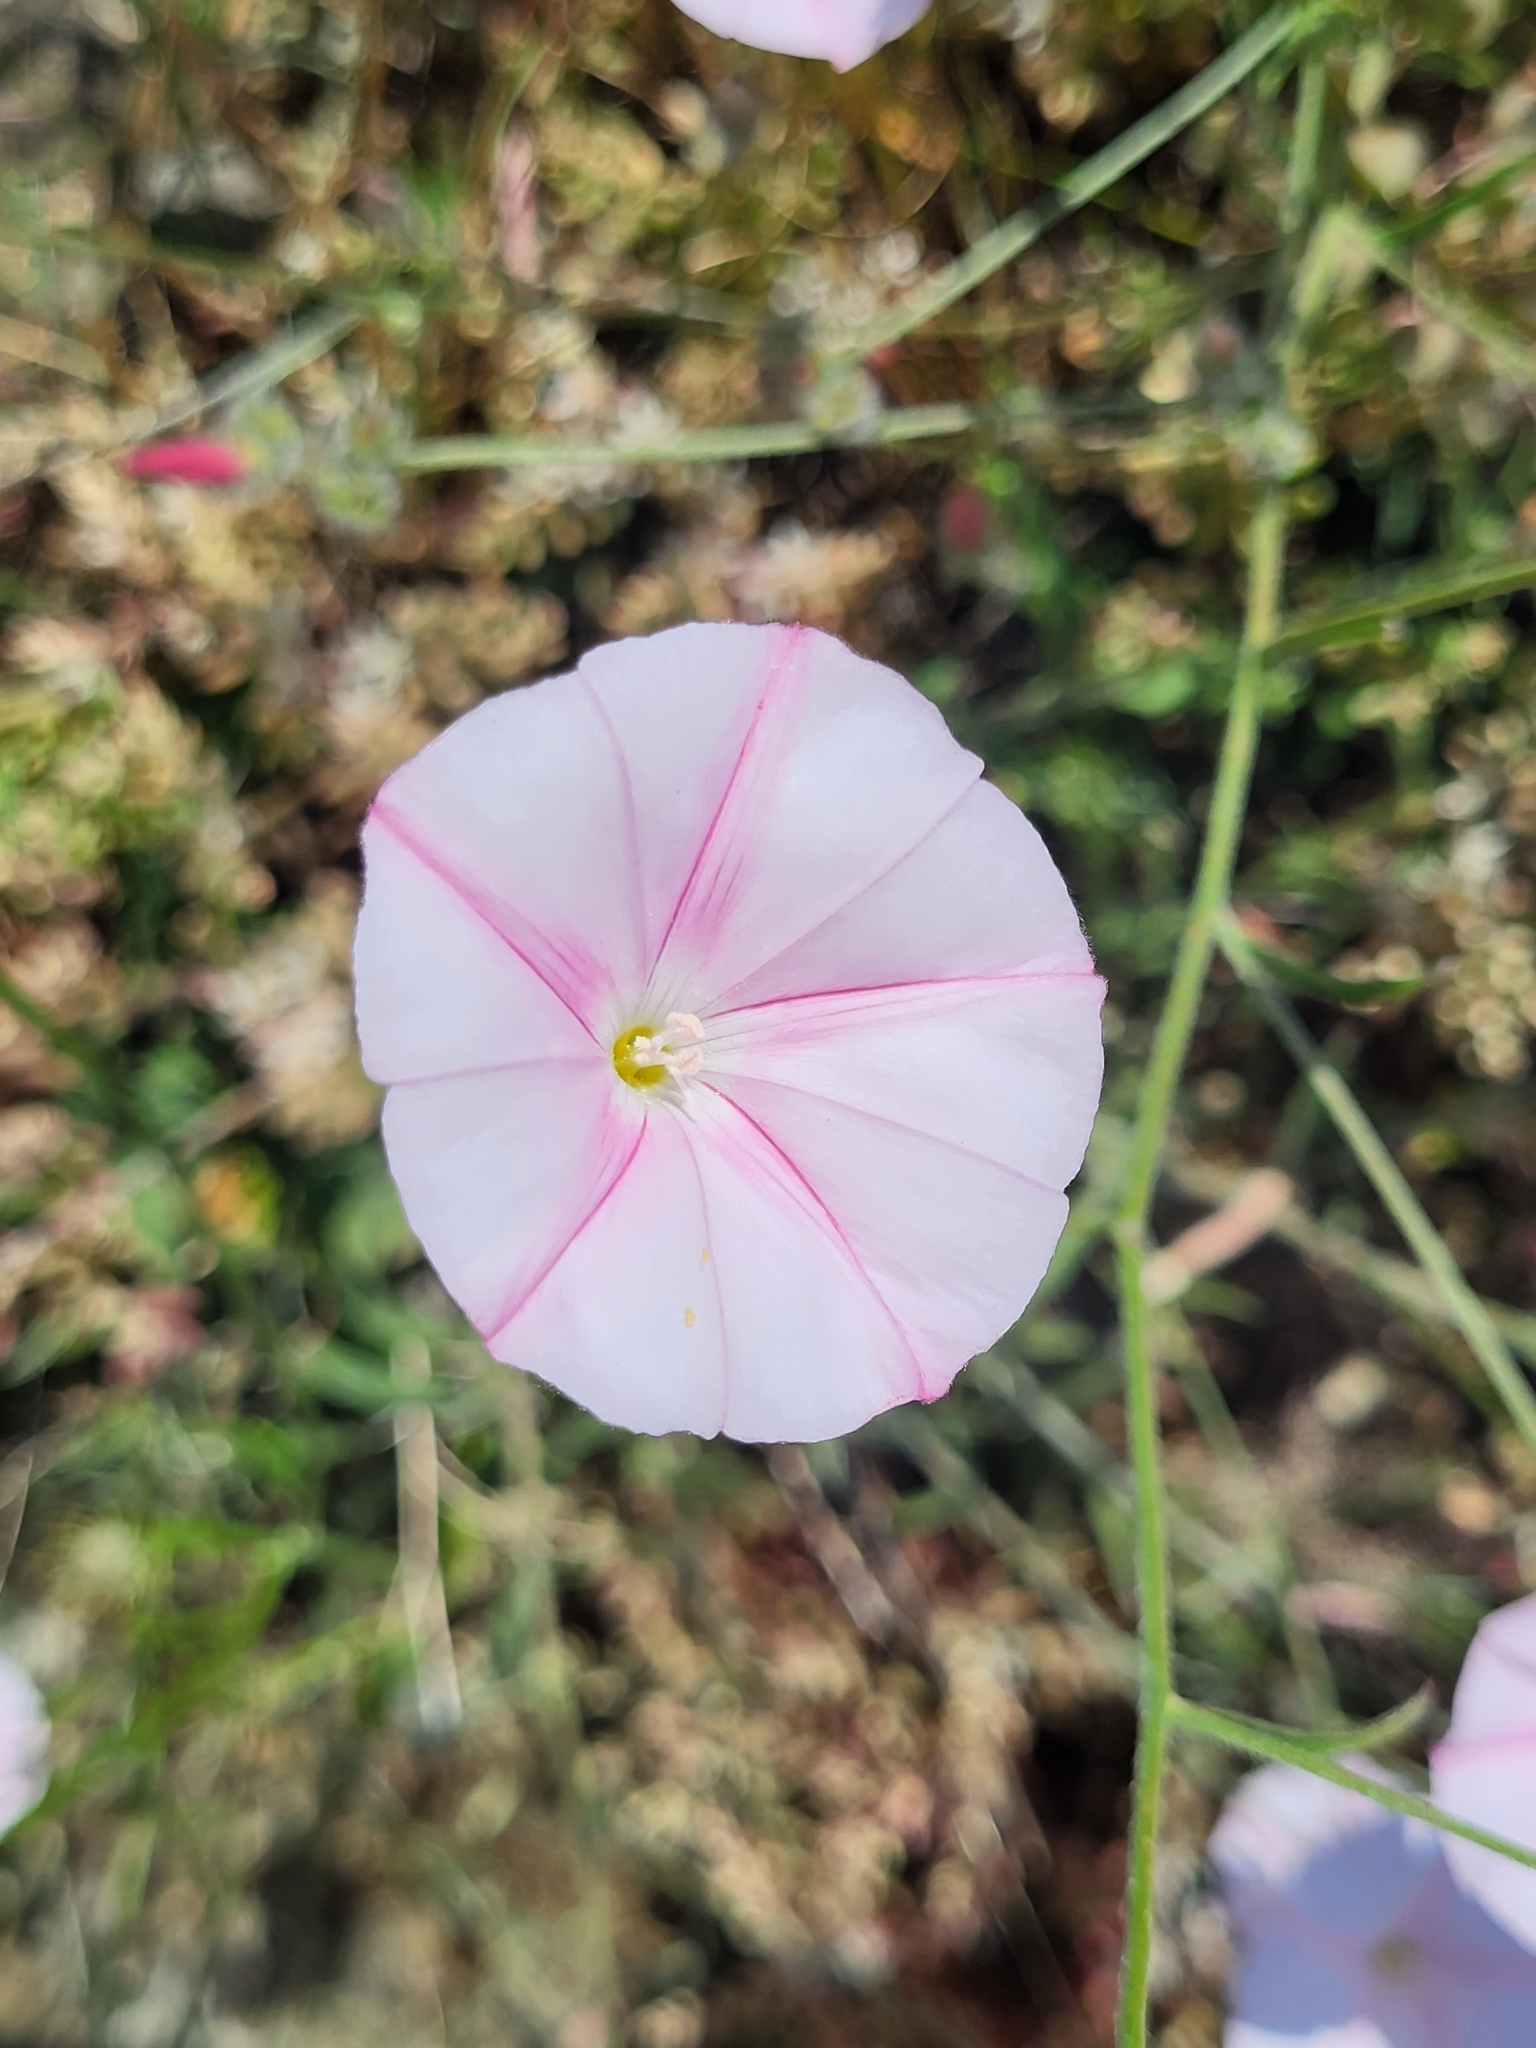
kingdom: Plantae
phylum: Tracheophyta
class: Magnoliopsida
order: Solanales
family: Convolvulaceae
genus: Convolvulus
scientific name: Convolvulus cantabrica
